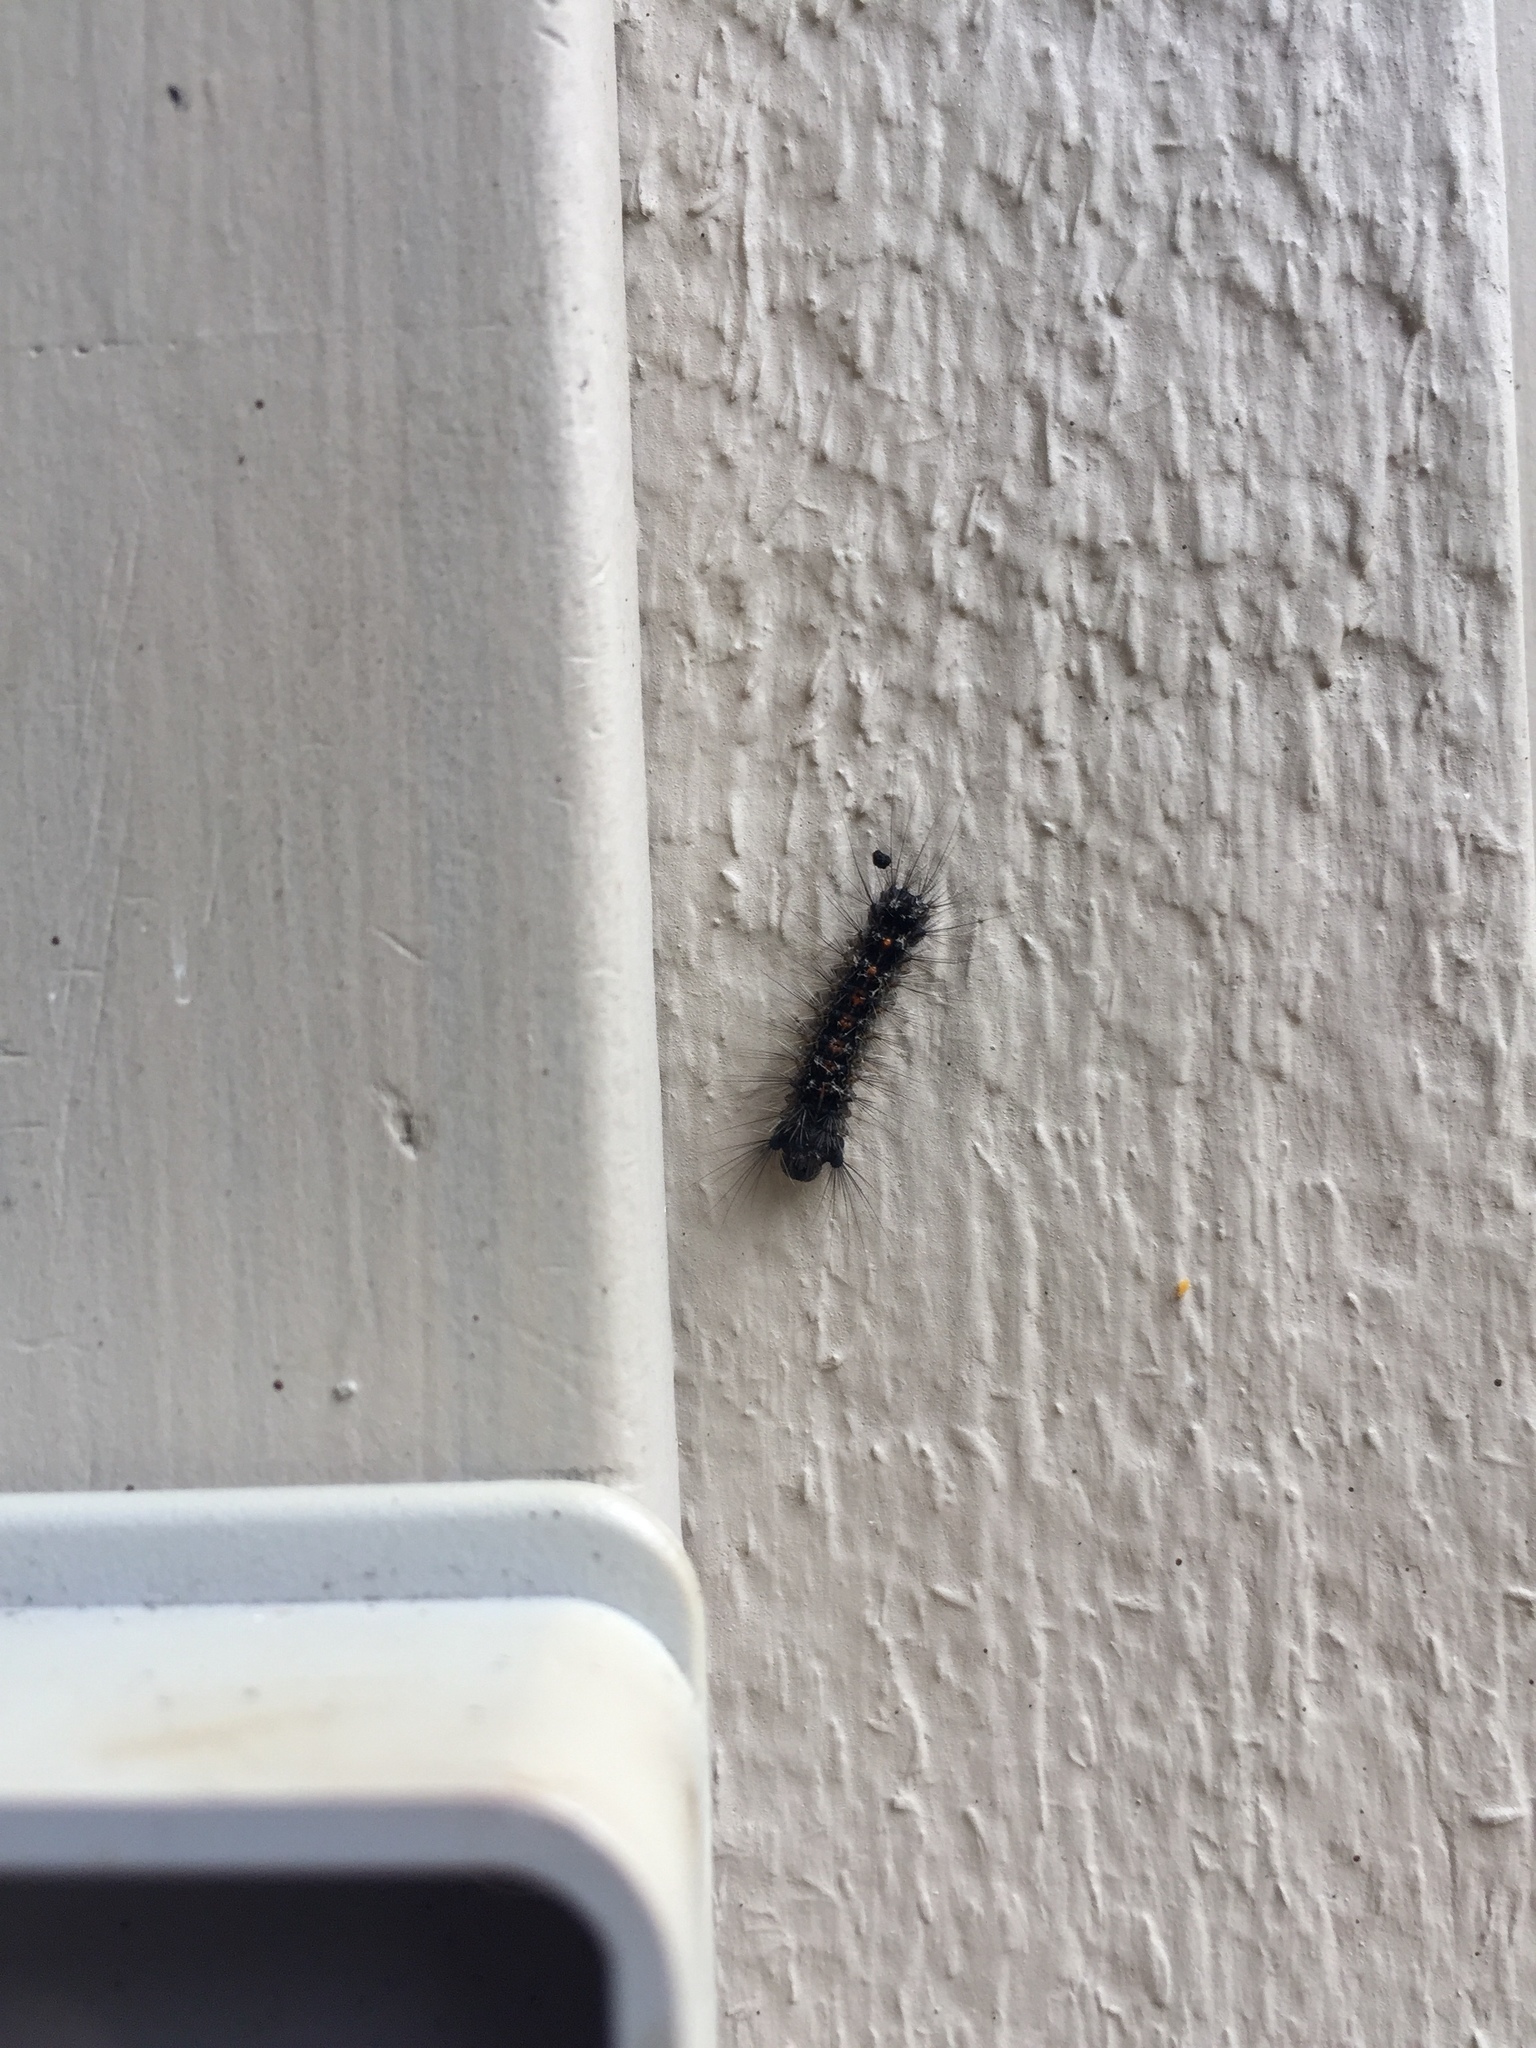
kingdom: Animalia
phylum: Arthropoda
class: Insecta
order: Lepidoptera
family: Erebidae
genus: Lymantria
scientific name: Lymantria dispar
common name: Gypsy moth
